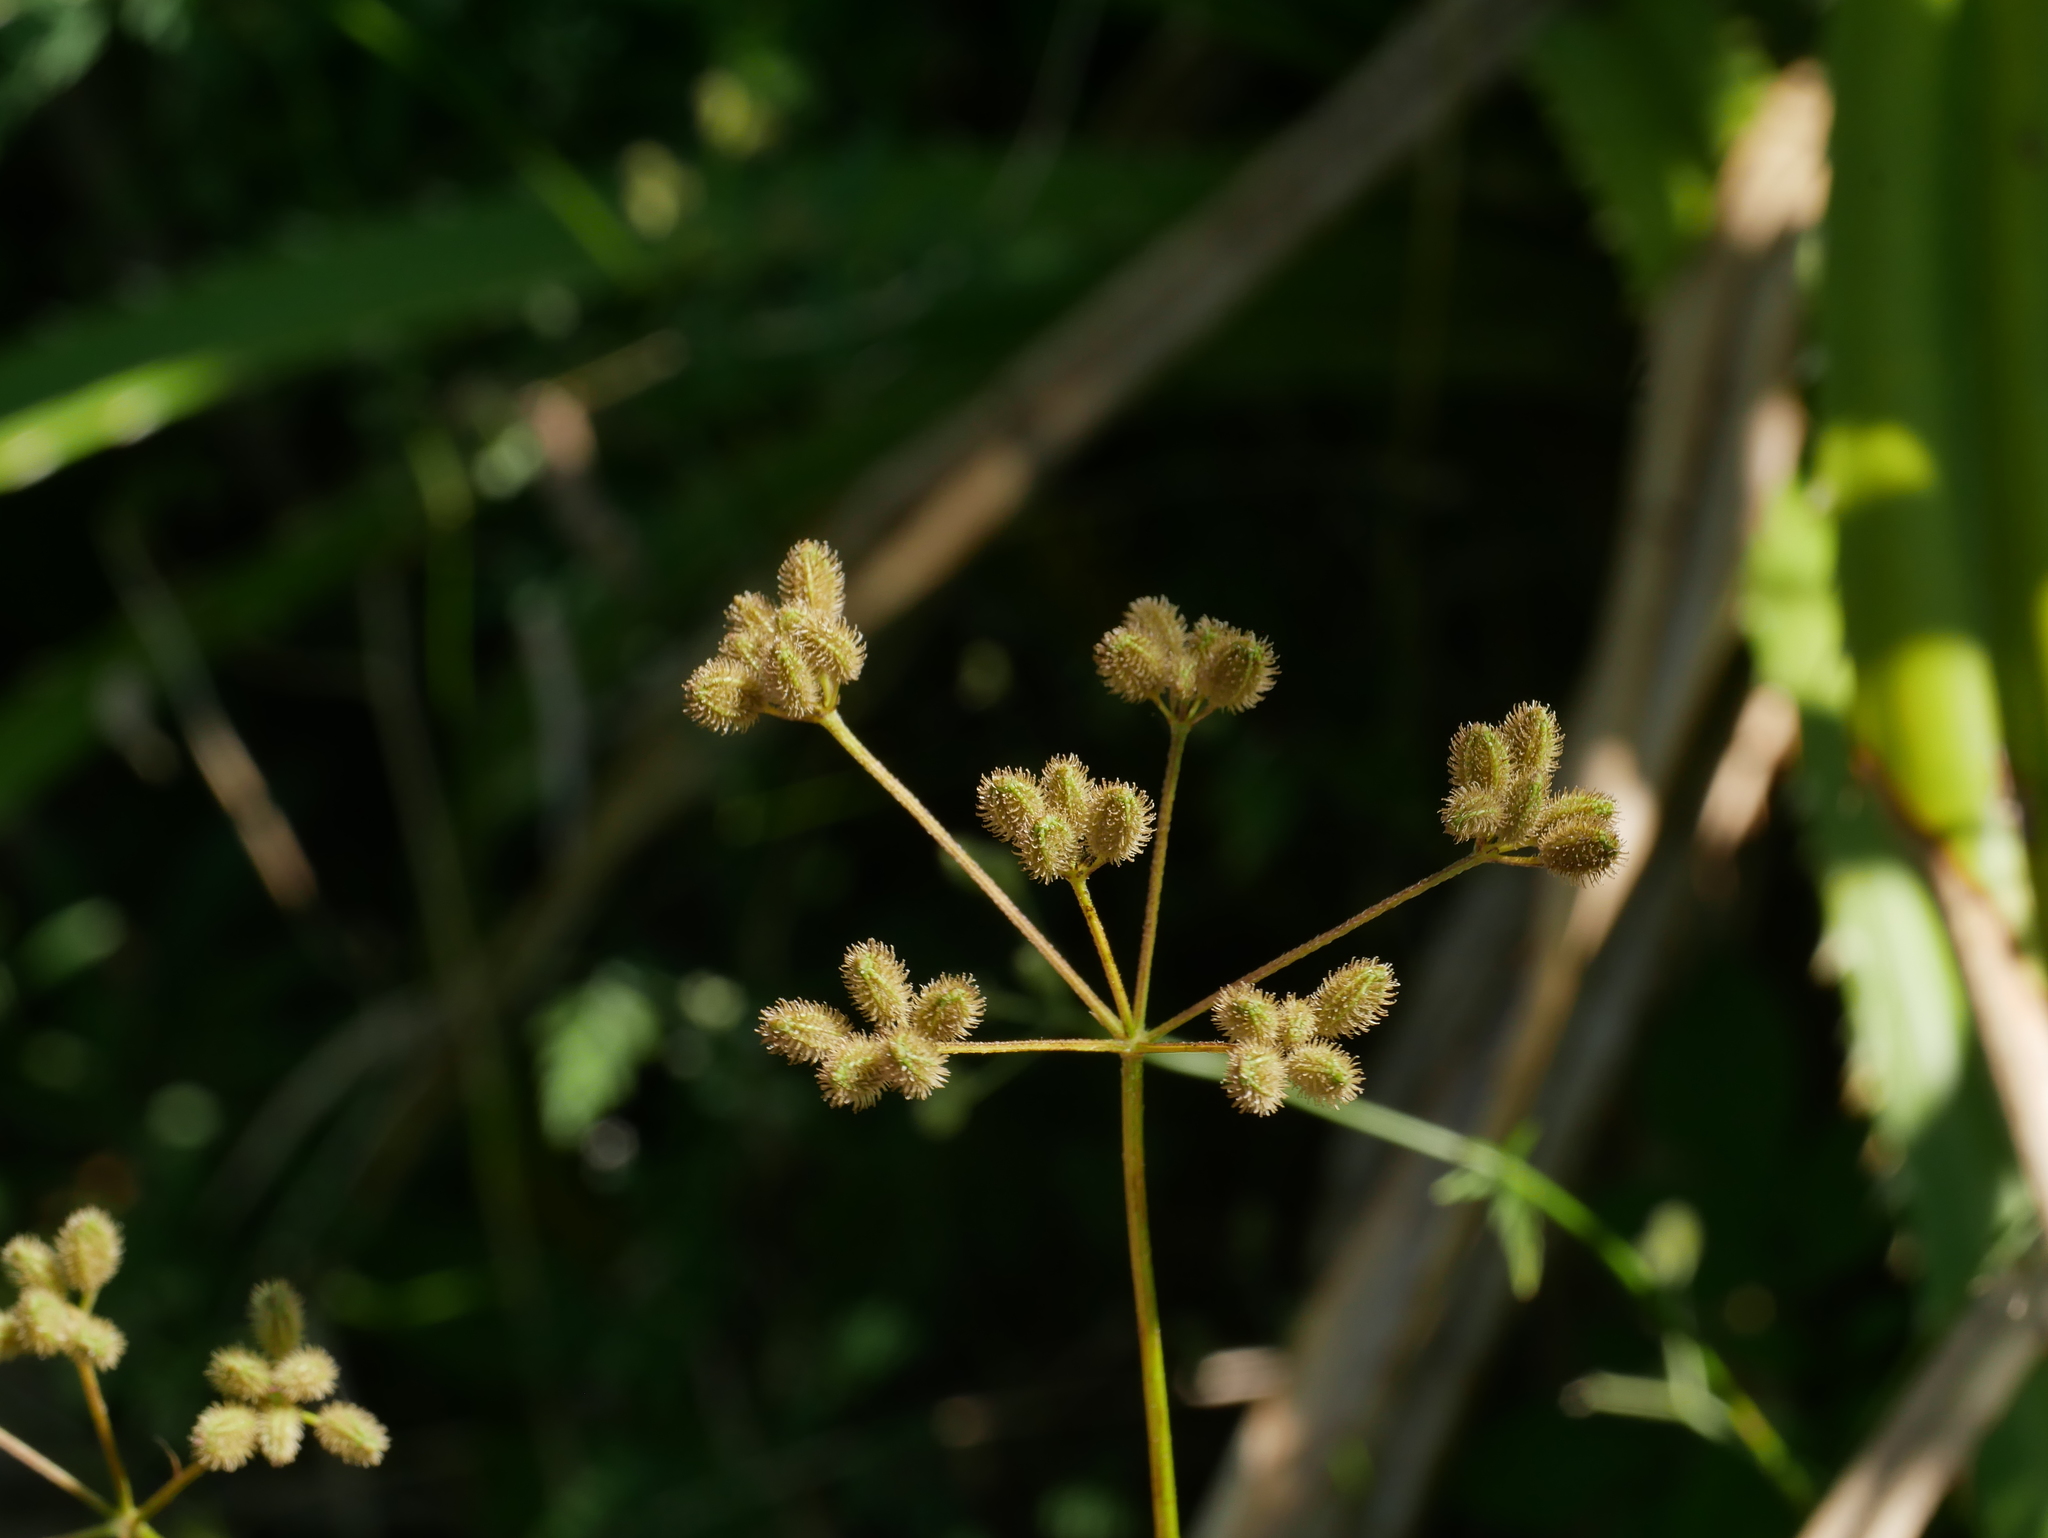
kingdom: Plantae
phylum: Tracheophyta
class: Magnoliopsida
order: Apiales
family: Apiaceae
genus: Torilis
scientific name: Torilis japonica
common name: Upright hedge-parsley
